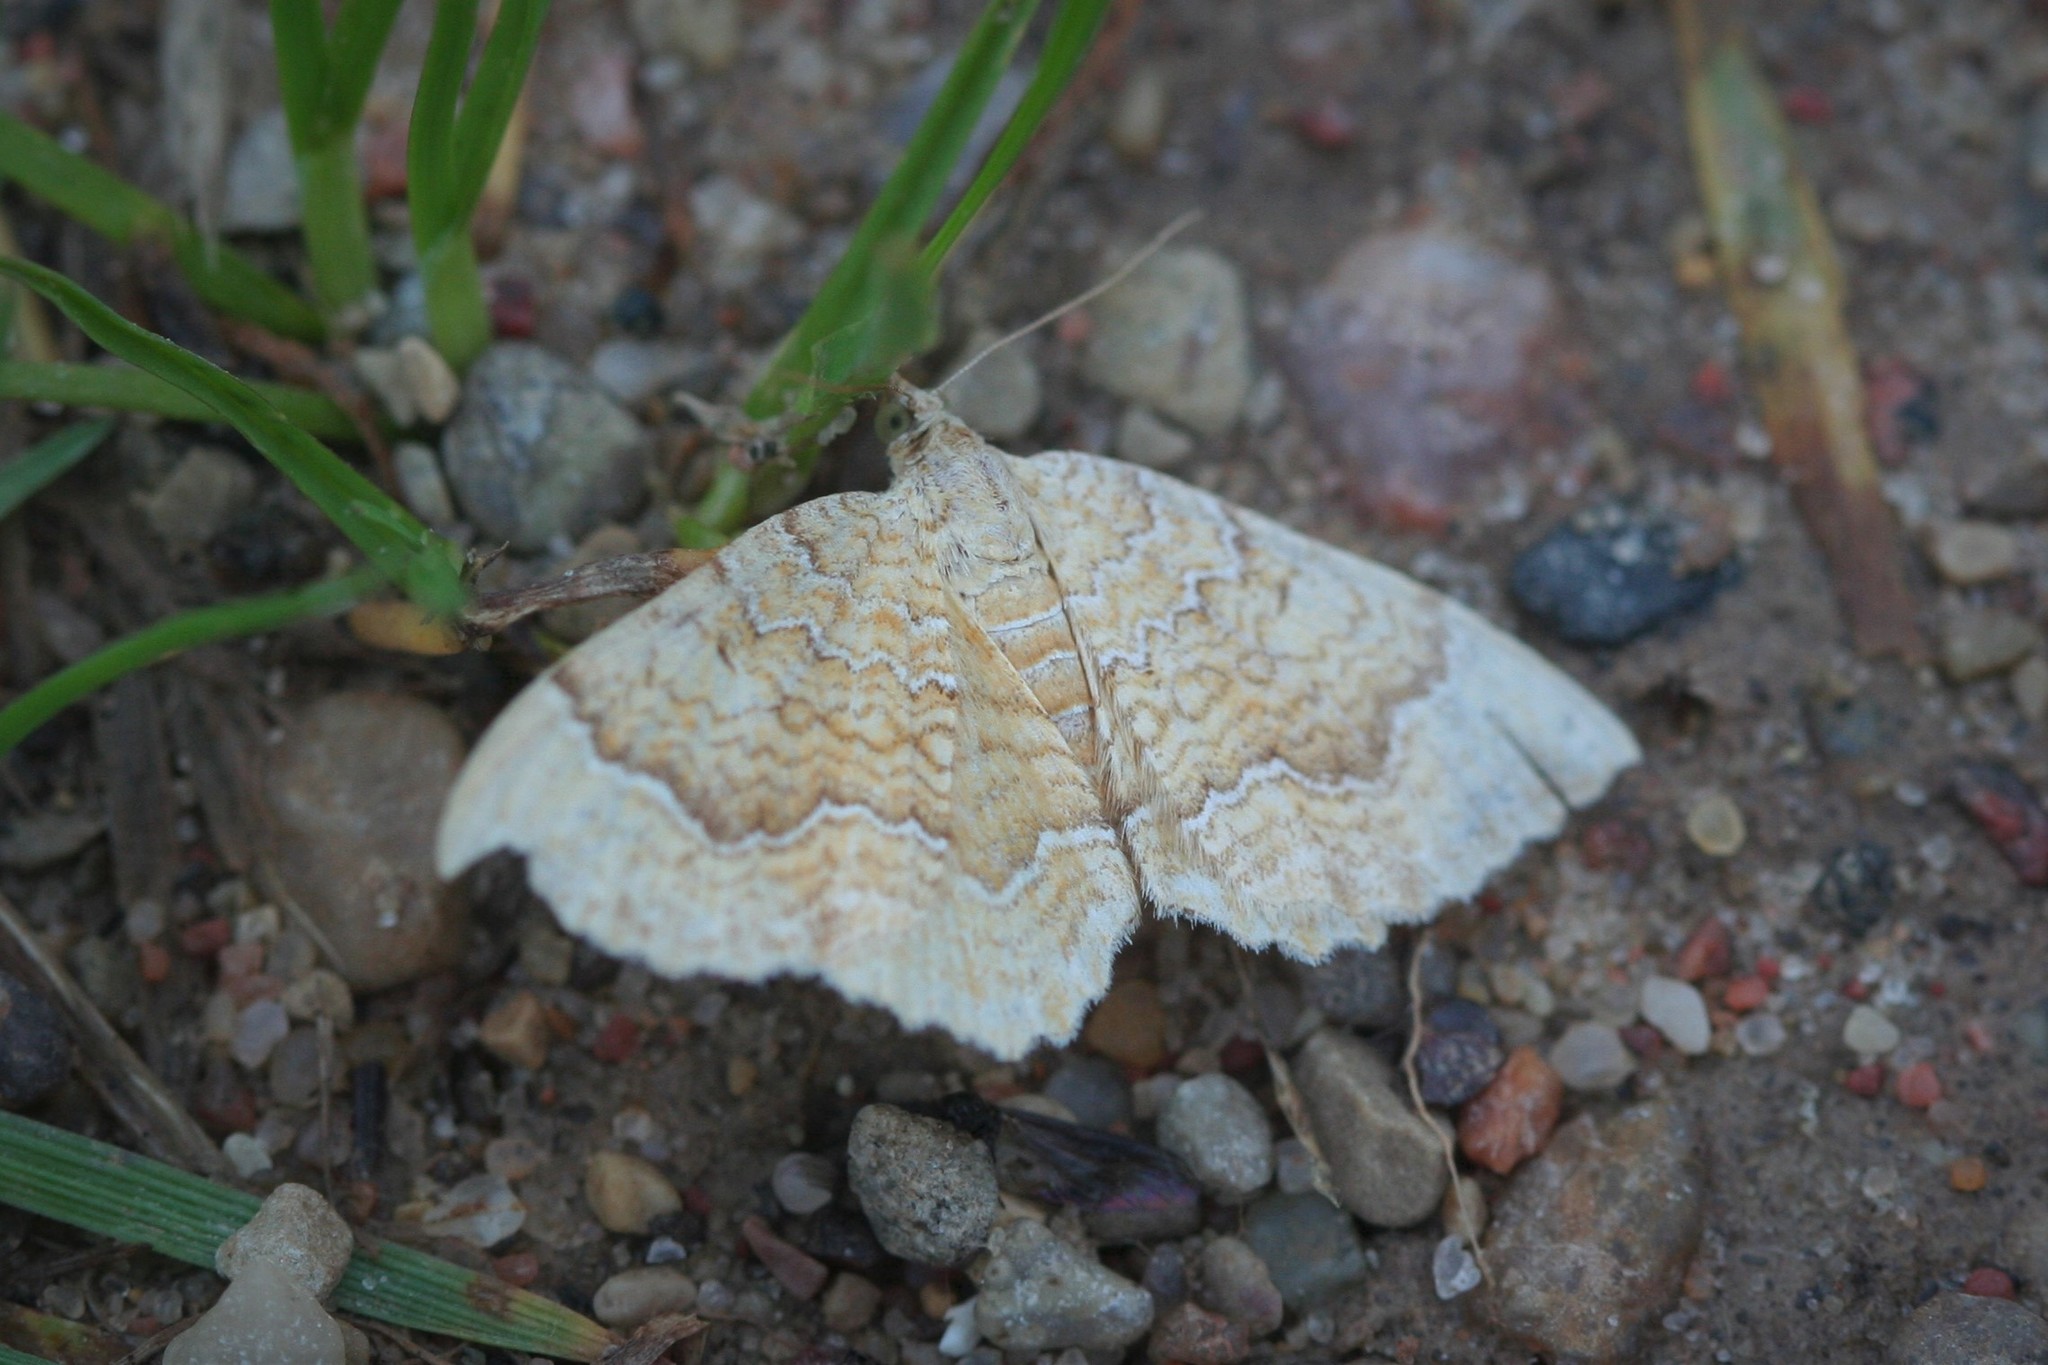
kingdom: Animalia
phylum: Arthropoda
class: Insecta
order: Lepidoptera
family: Geometridae
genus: Camptogramma
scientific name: Camptogramma bilineata
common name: Yellow shell
